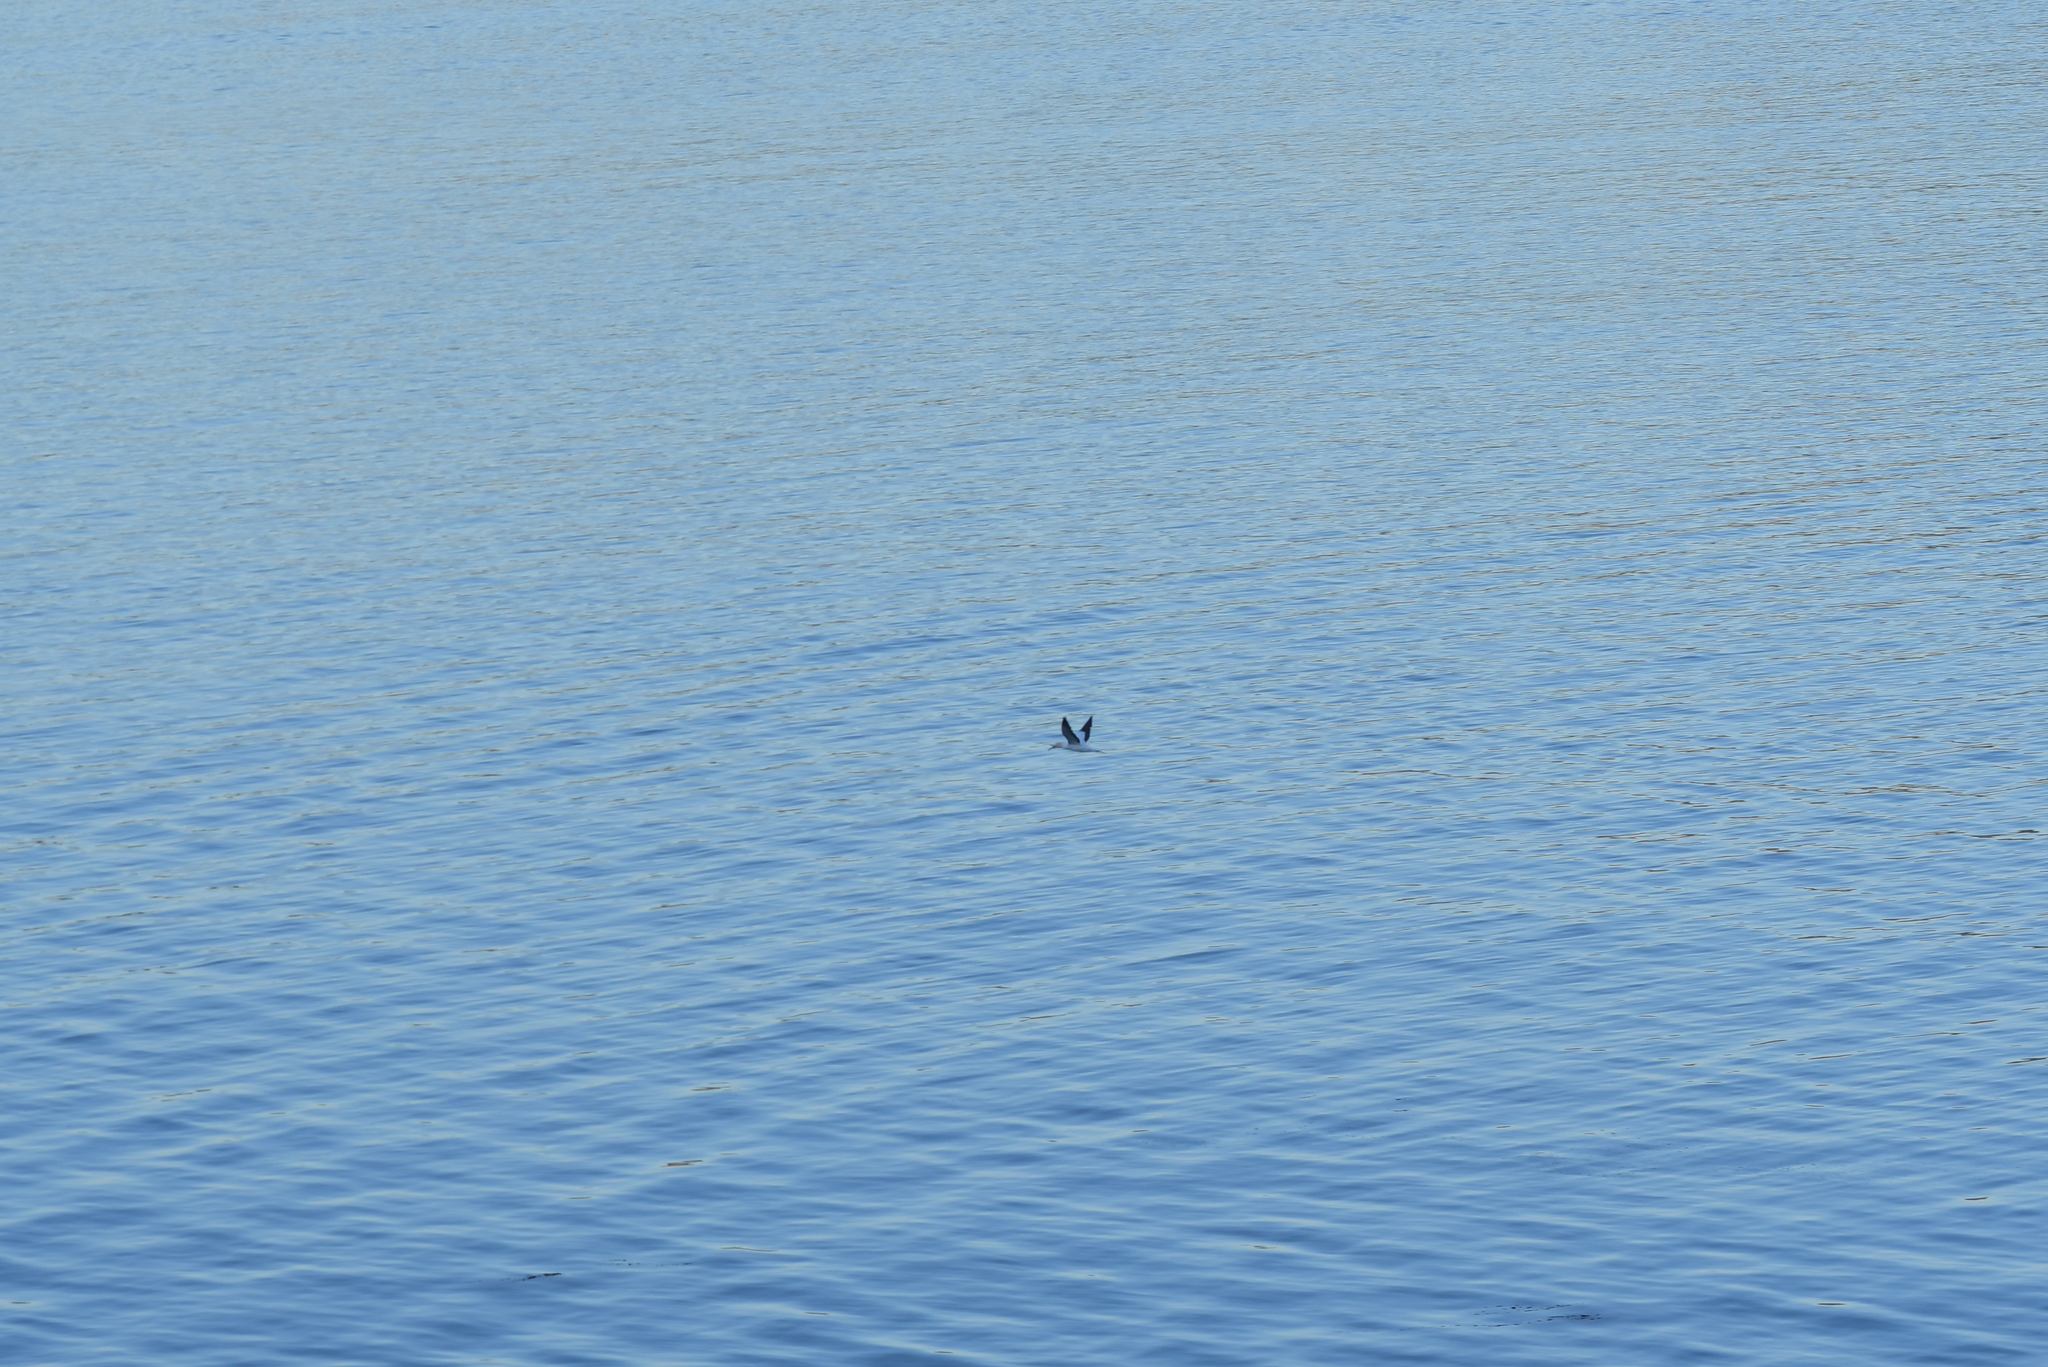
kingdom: Animalia
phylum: Chordata
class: Aves
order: Suliformes
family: Sulidae
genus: Morus
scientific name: Morus serrator
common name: Australasian gannet
